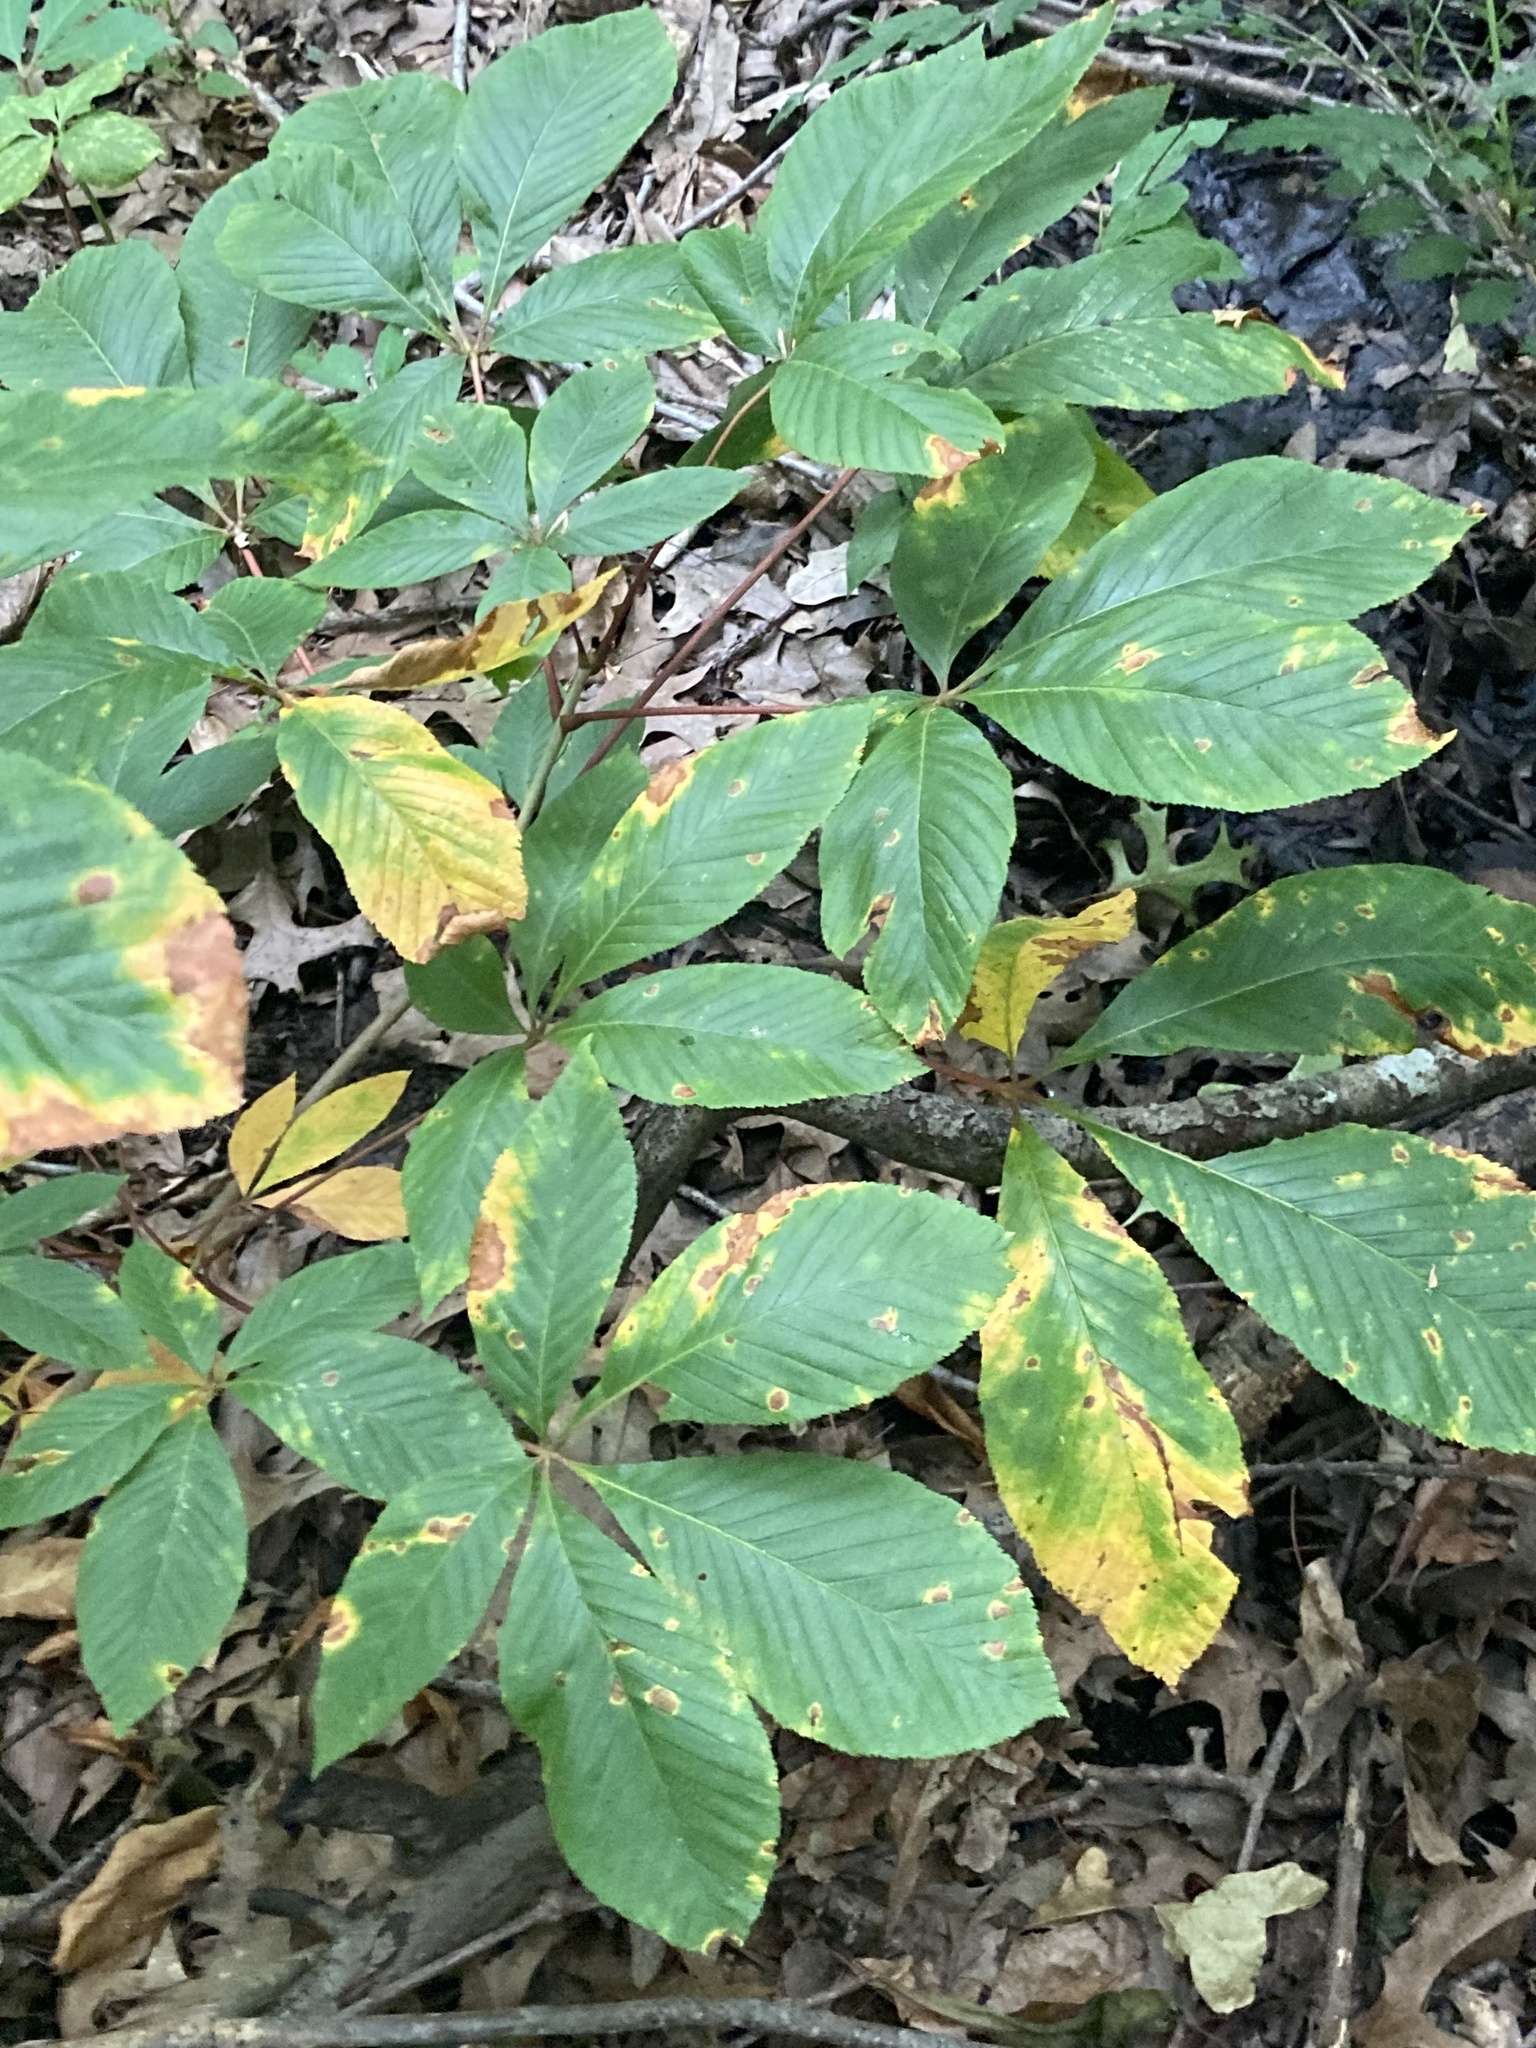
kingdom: Plantae
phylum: Tracheophyta
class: Magnoliopsida
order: Sapindales
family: Sapindaceae
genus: Aesculus
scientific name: Aesculus pavia
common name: Red buckeye
